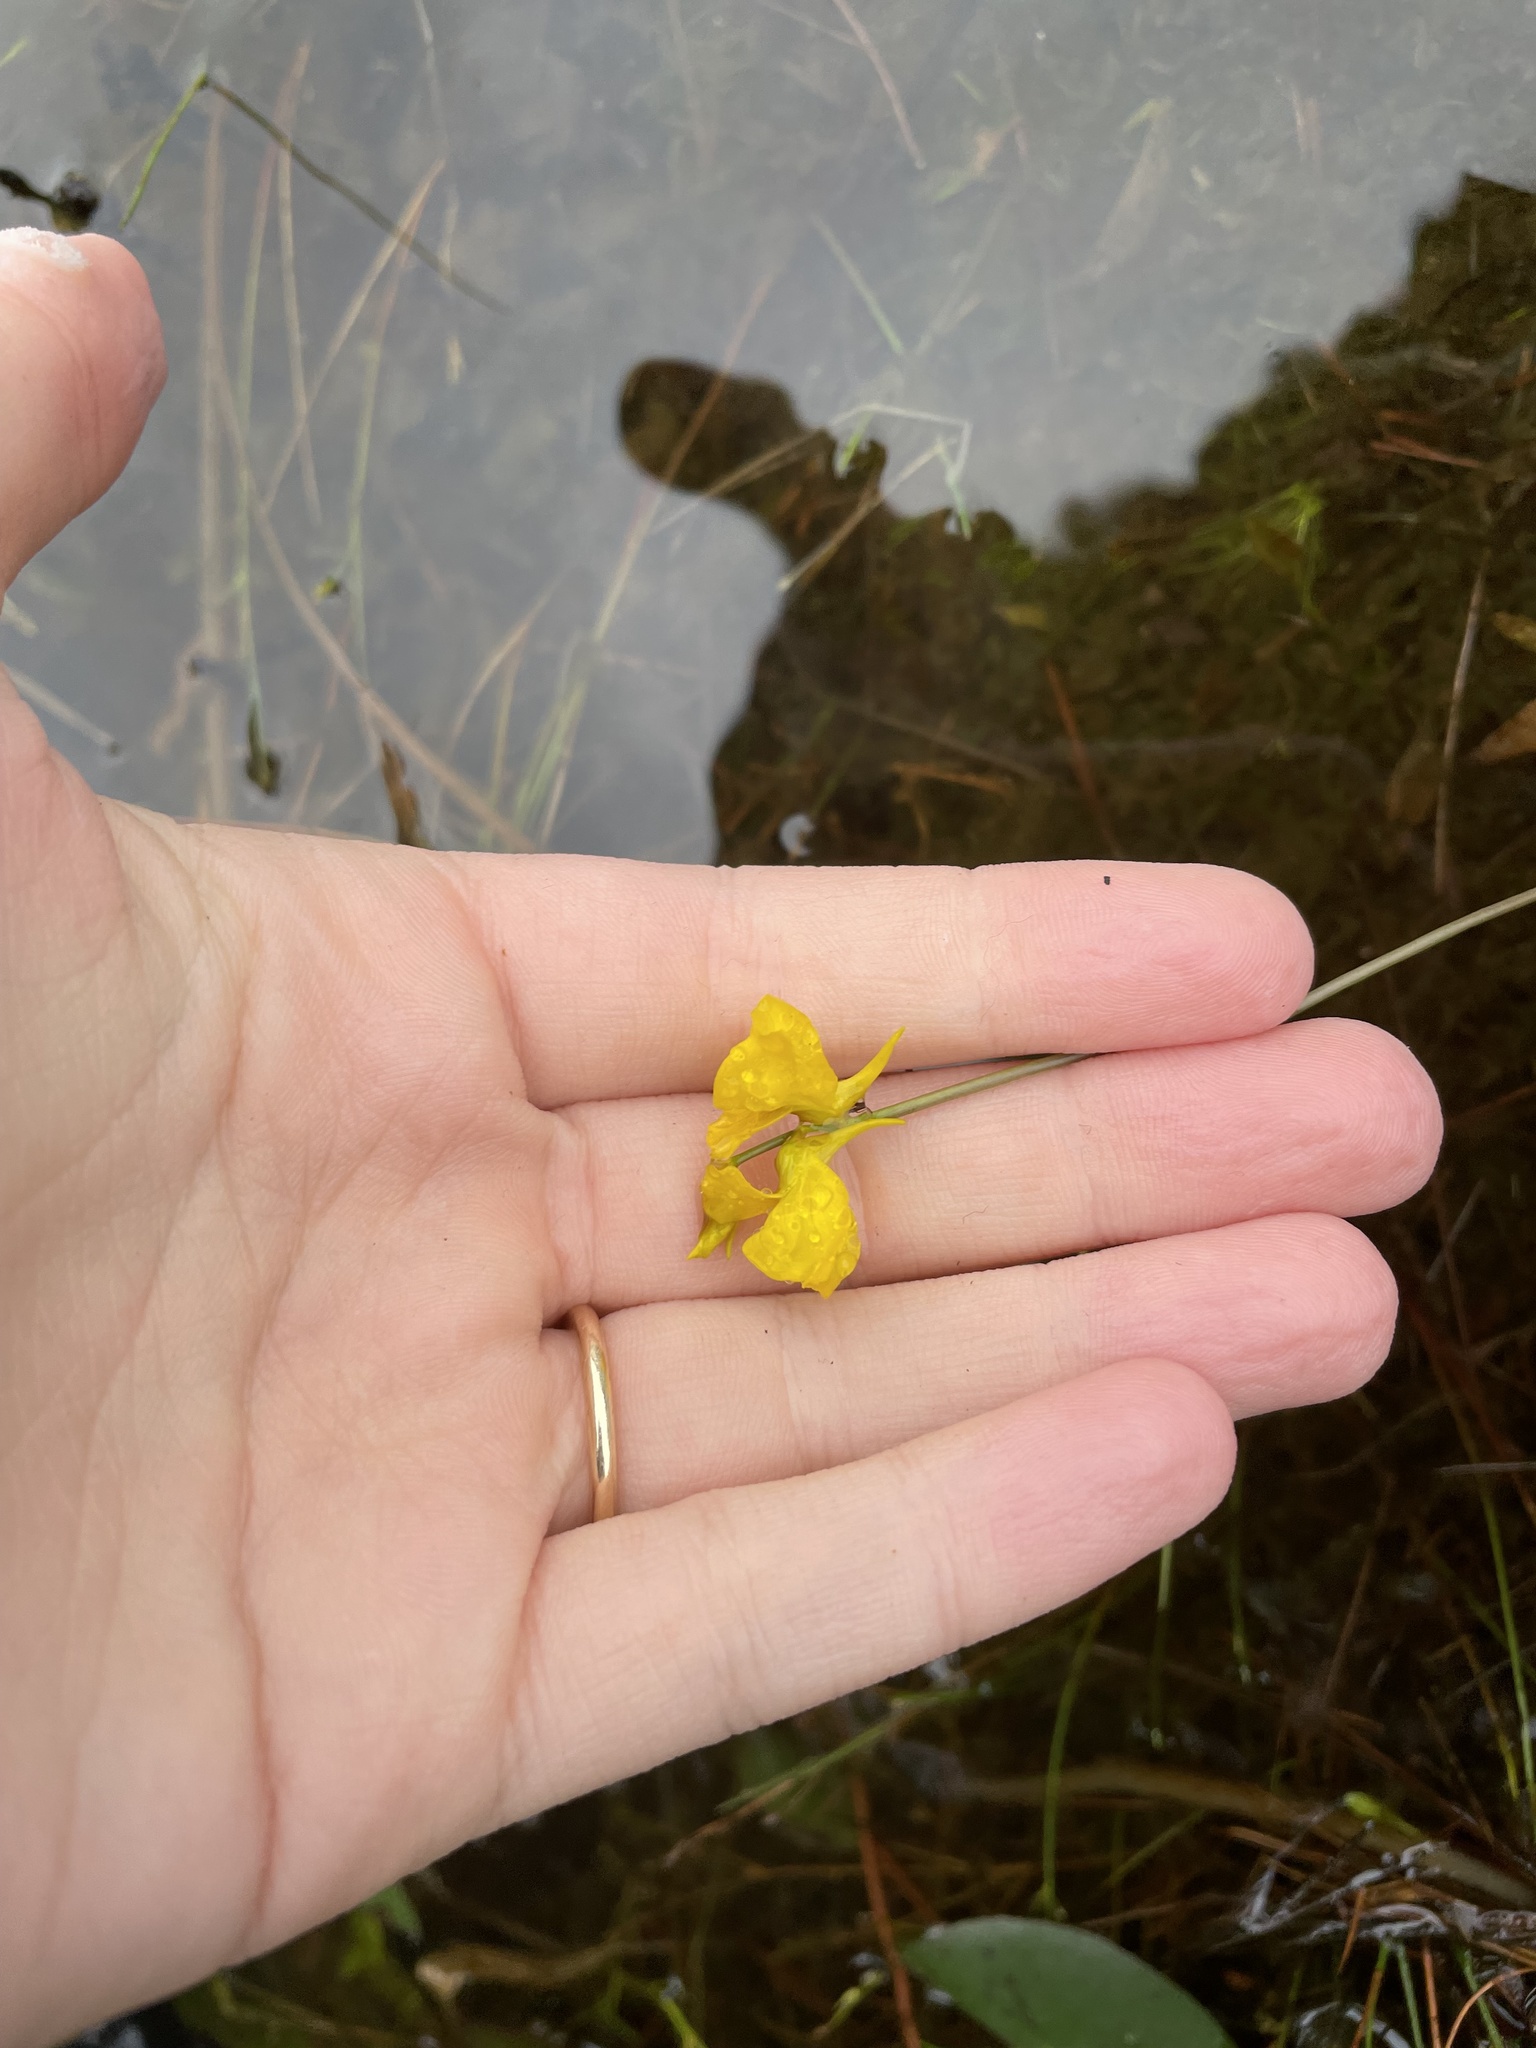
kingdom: Plantae
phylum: Tracheophyta
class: Magnoliopsida
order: Lamiales
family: Lentibulariaceae
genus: Utricularia
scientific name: Utricularia cornuta
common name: Horned bladderwort
